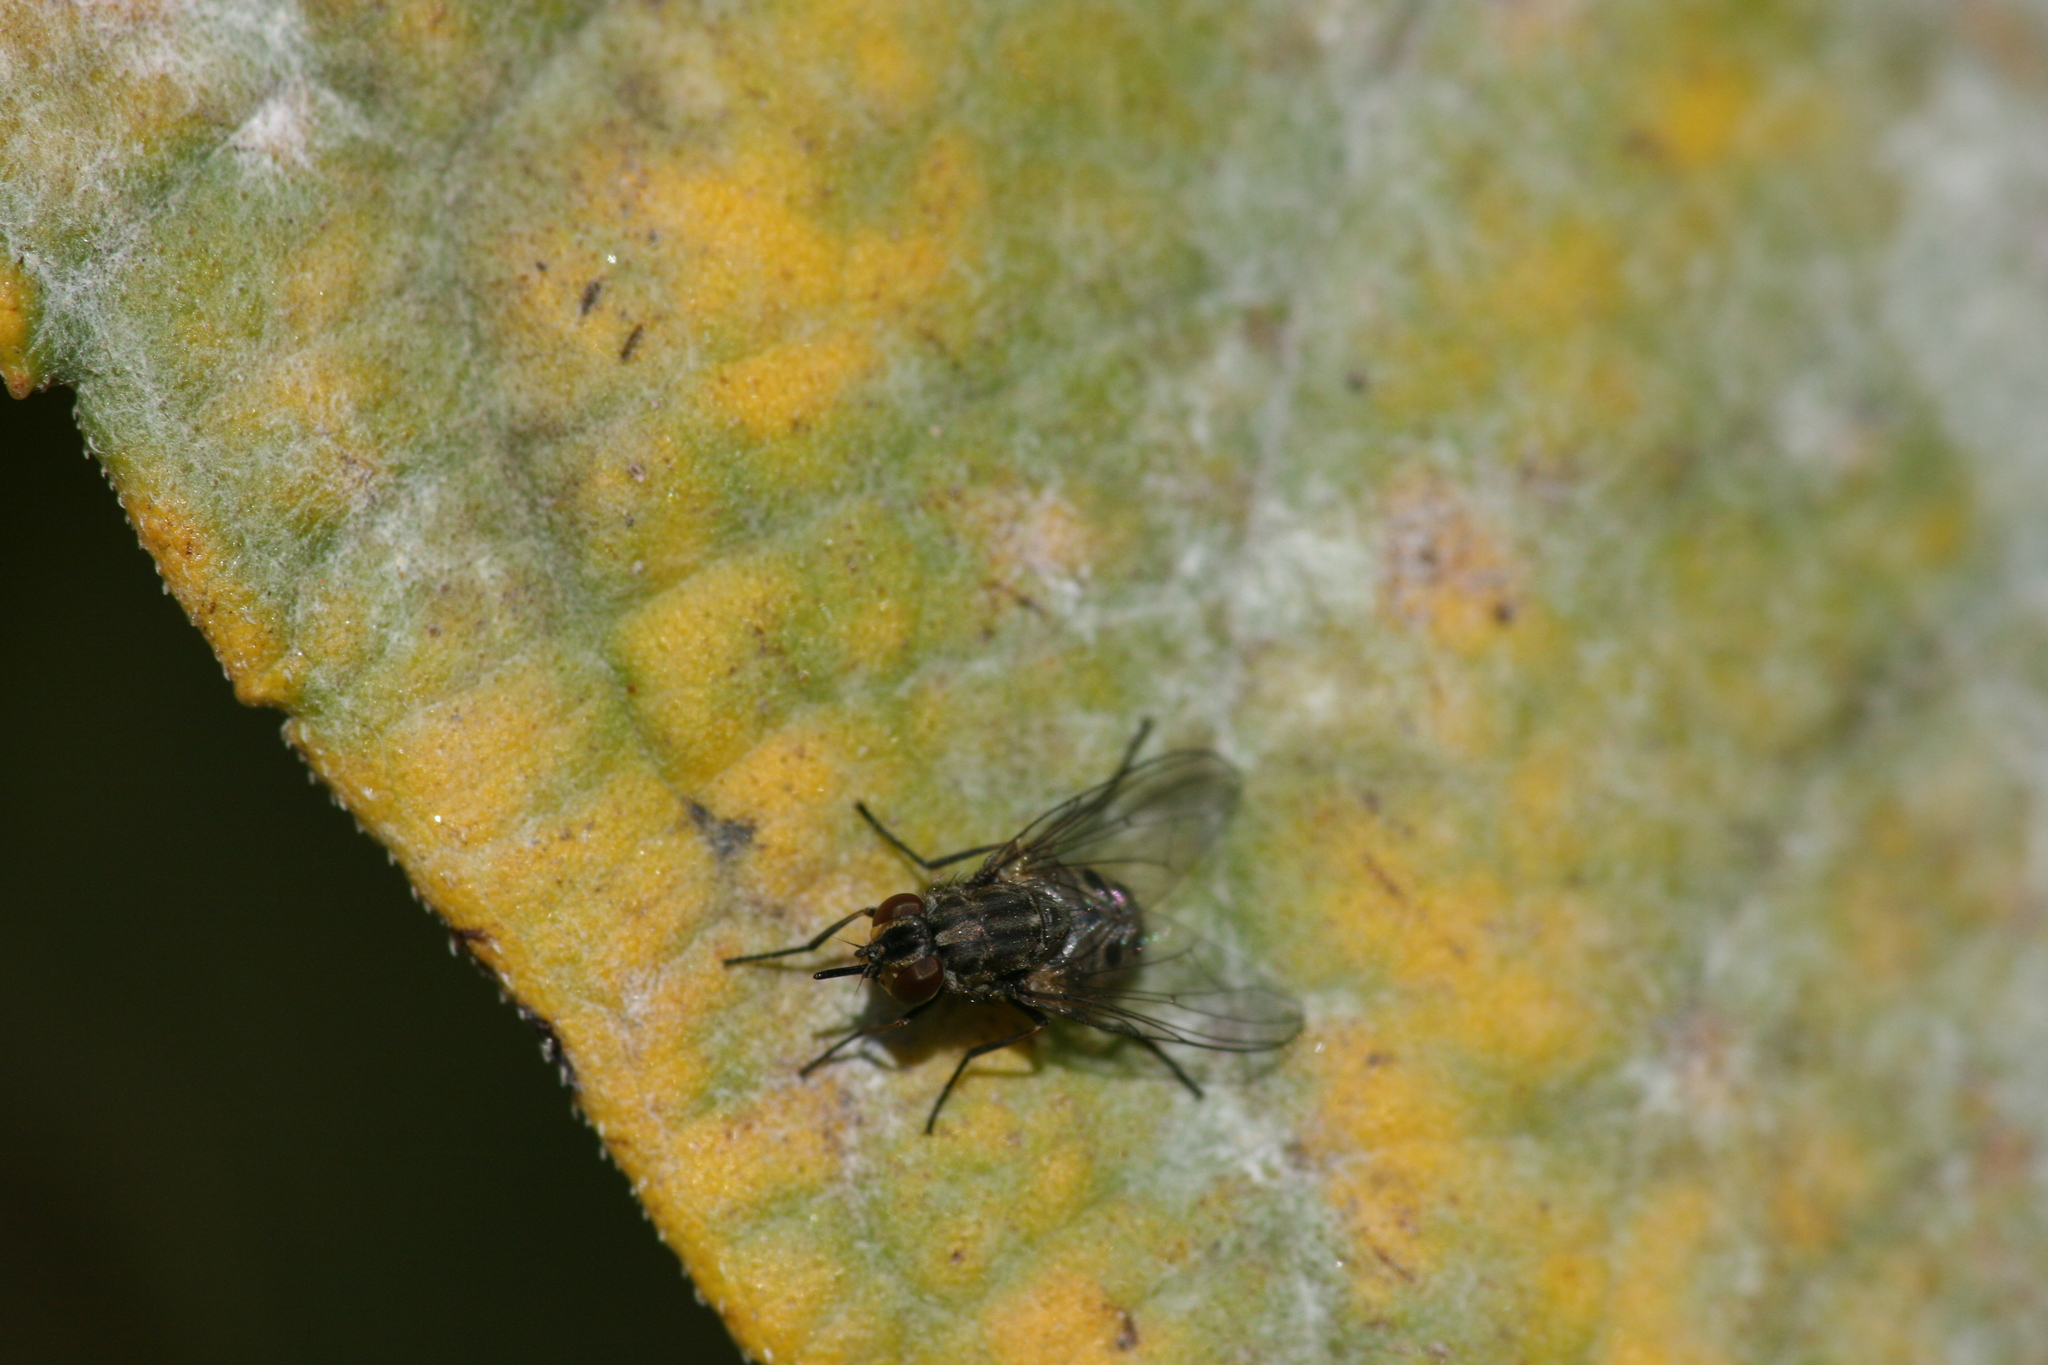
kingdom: Animalia
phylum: Arthropoda
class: Insecta
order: Diptera
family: Muscidae
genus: Stomoxys
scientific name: Stomoxys calcitrans
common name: Stable fly
